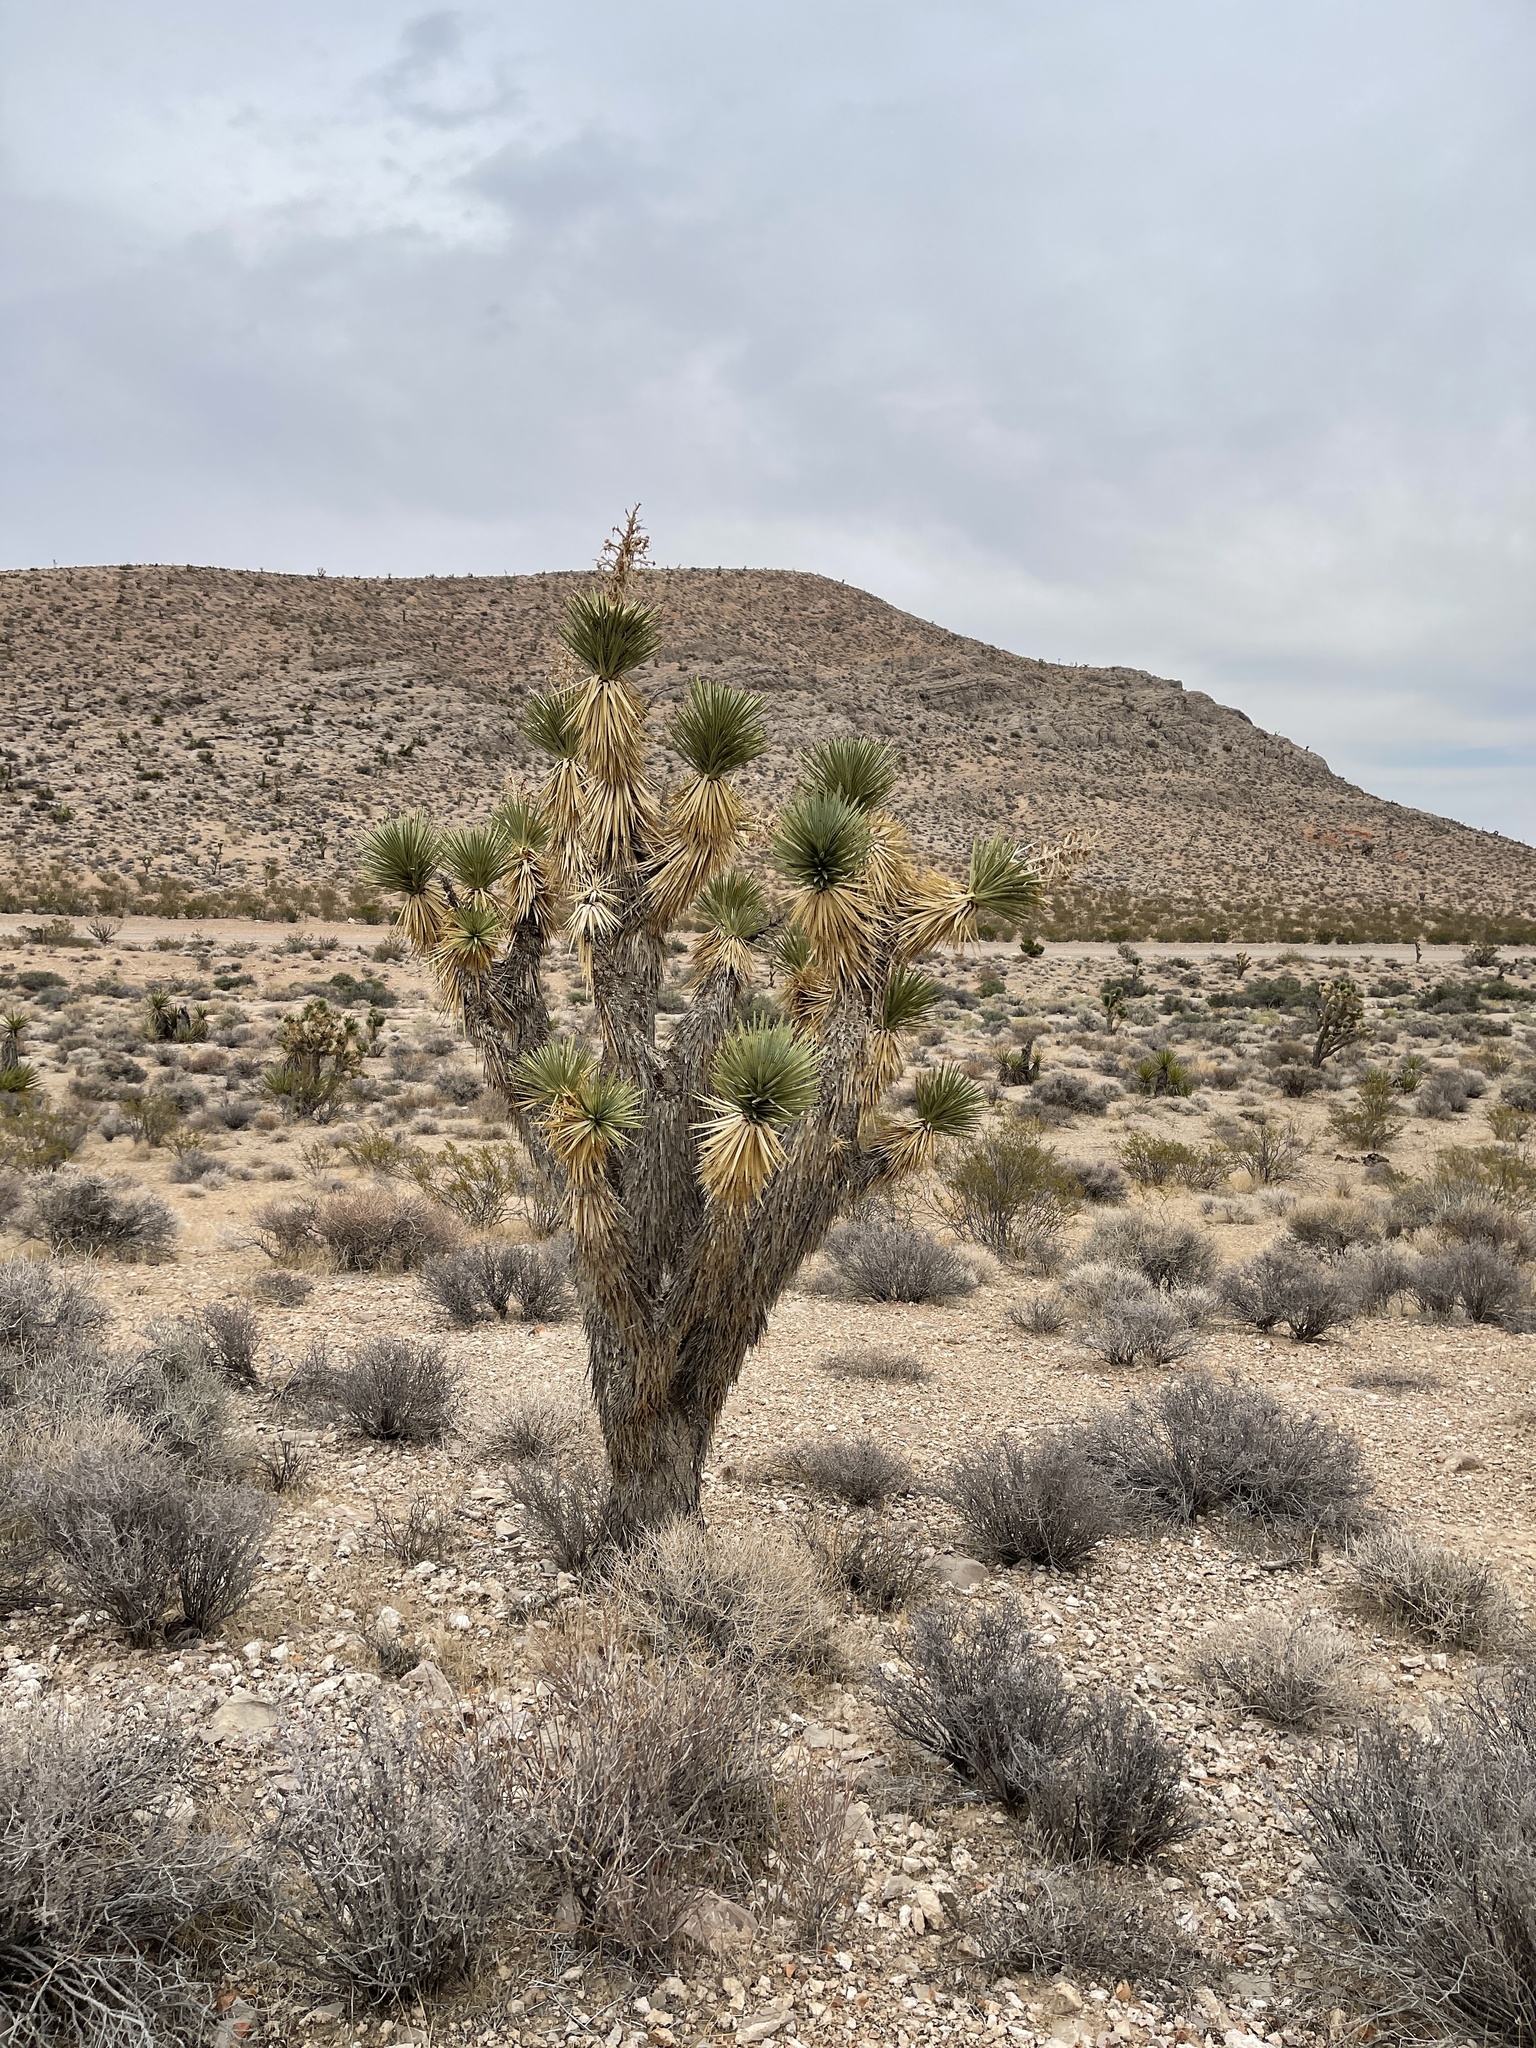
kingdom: Plantae
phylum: Tracheophyta
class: Liliopsida
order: Asparagales
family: Asparagaceae
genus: Yucca
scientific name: Yucca brevifolia
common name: Joshua tree
